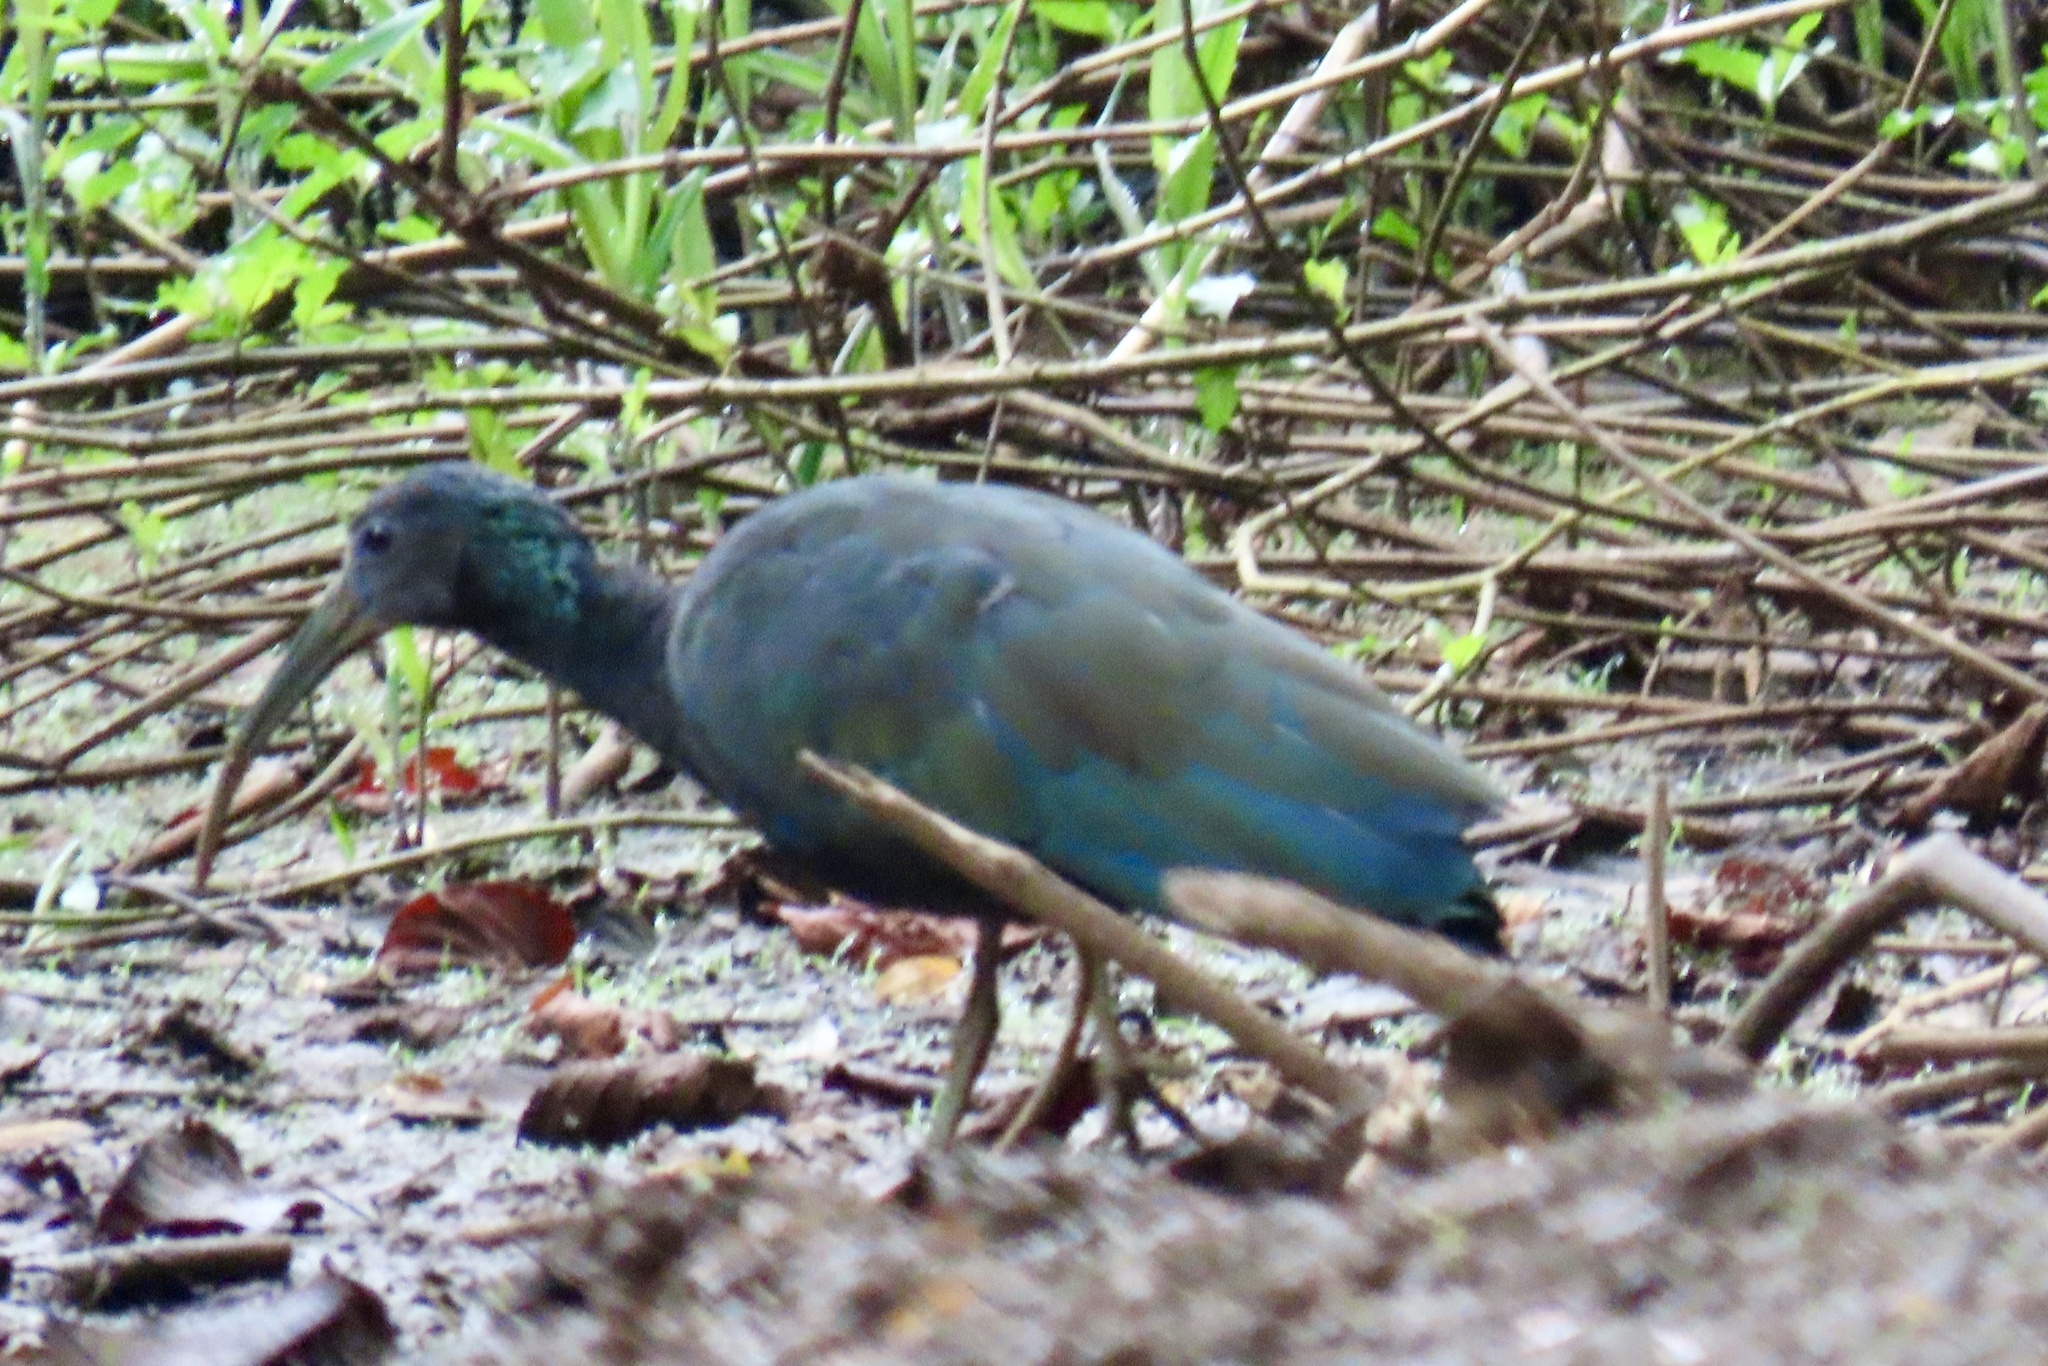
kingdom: Animalia
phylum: Chordata
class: Aves
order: Pelecaniformes
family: Threskiornithidae
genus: Mesembrinibis
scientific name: Mesembrinibis cayennensis
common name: Green ibis
